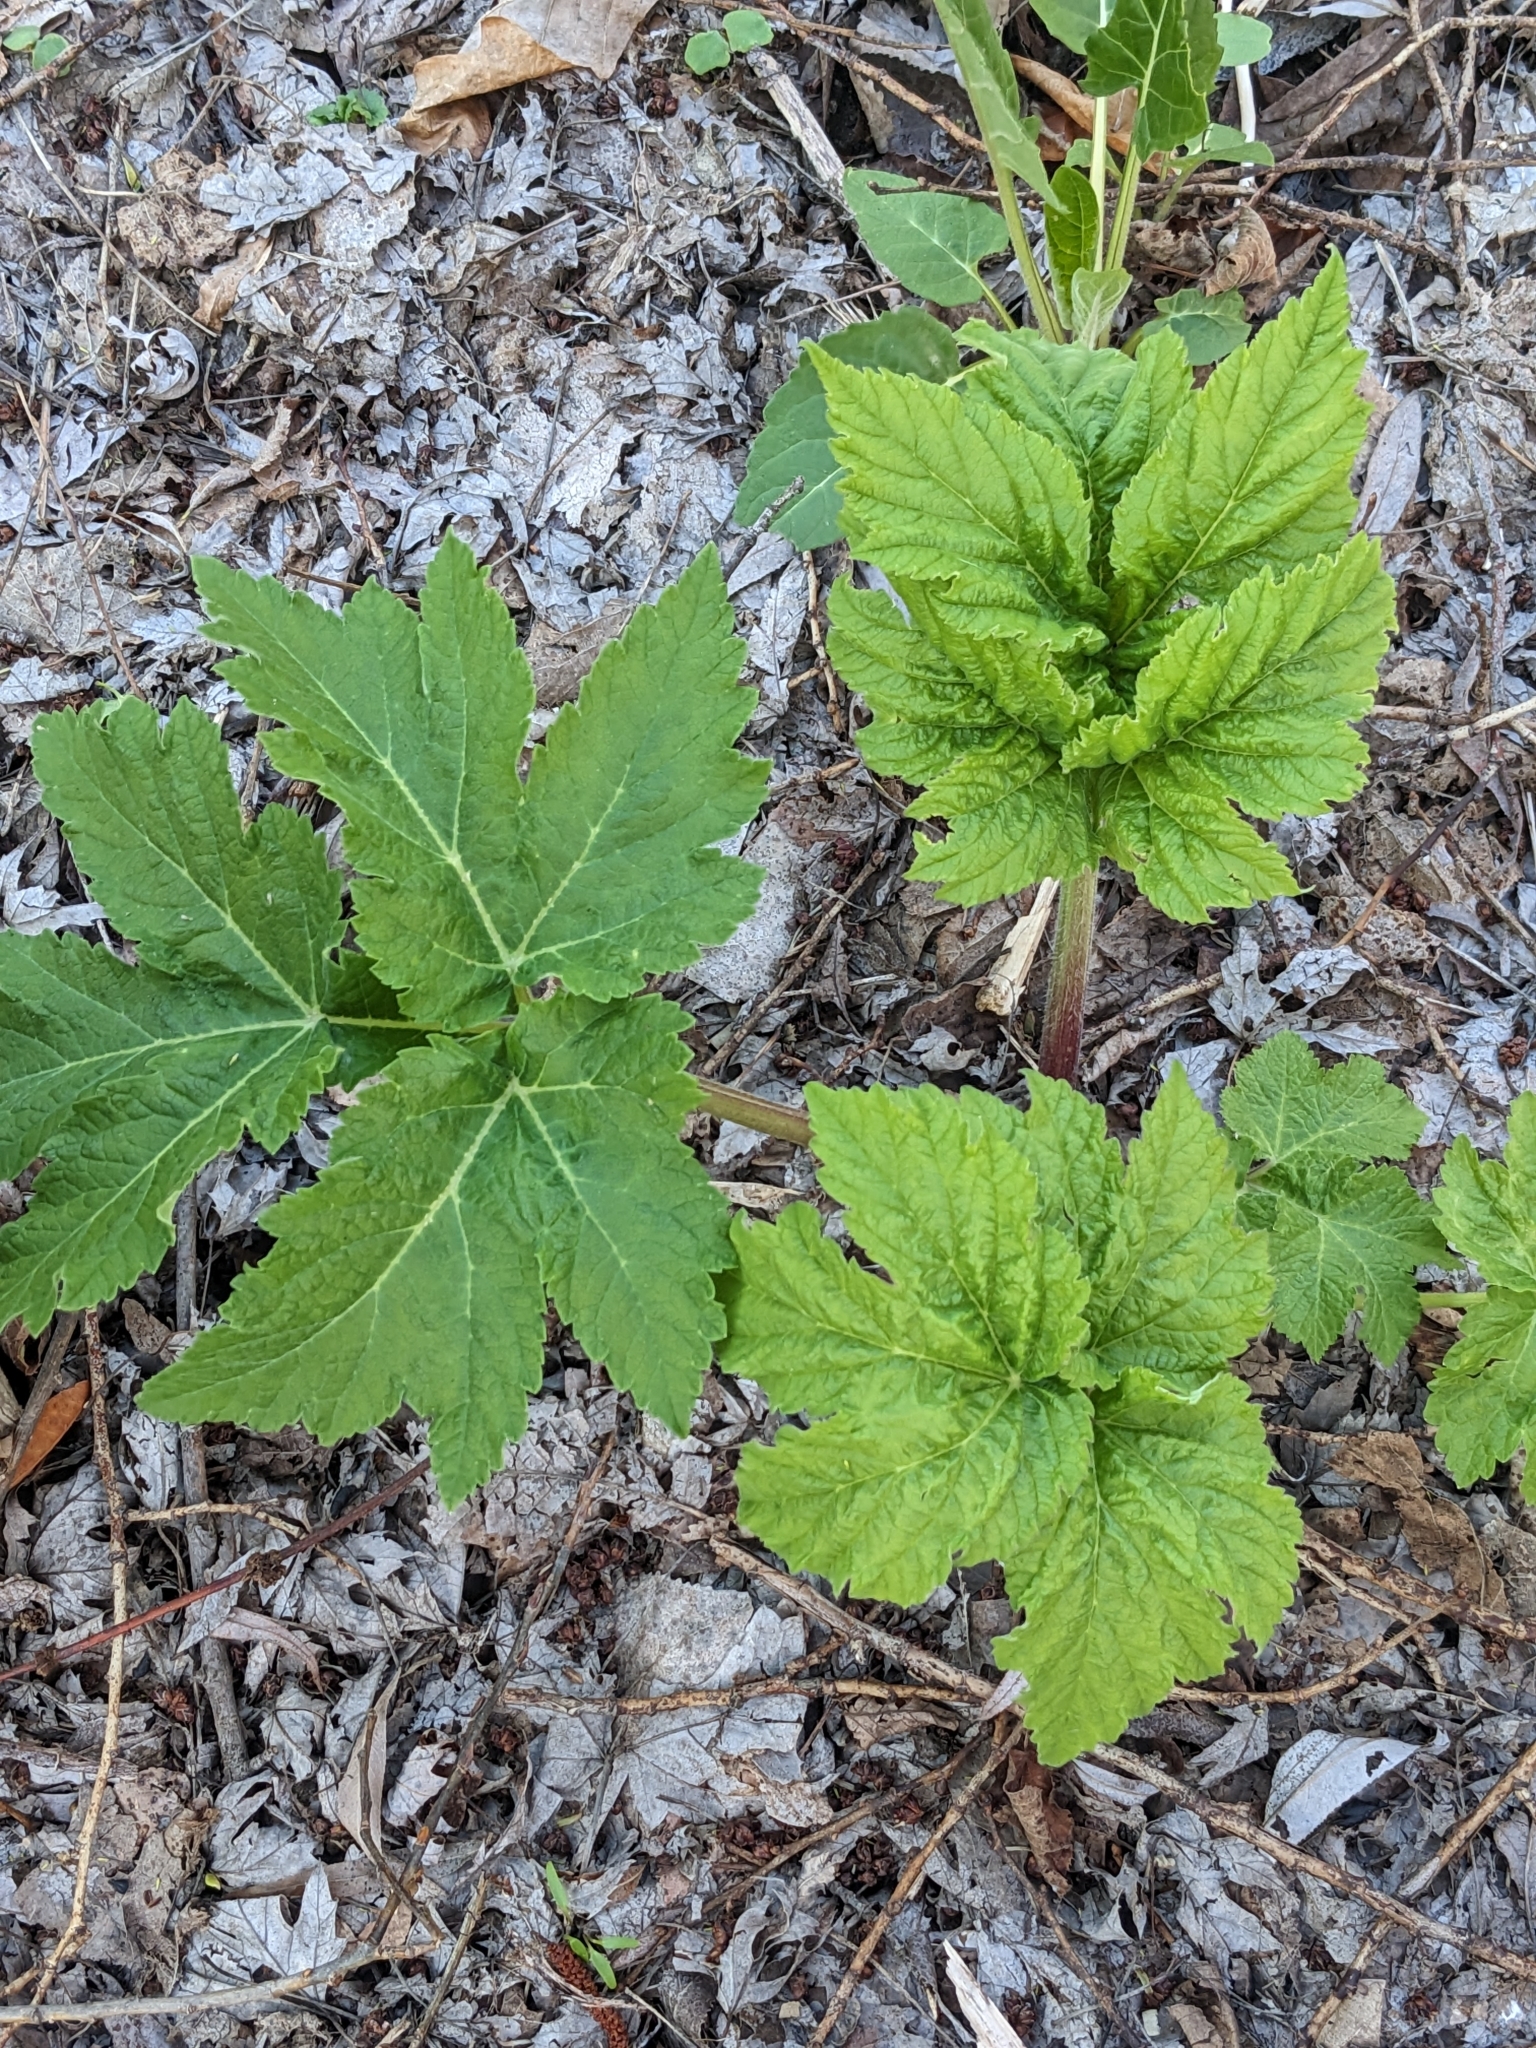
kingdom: Plantae
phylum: Tracheophyta
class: Magnoliopsida
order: Apiales
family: Apiaceae
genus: Heracleum
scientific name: Heracleum maximum
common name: American cow parsnip
